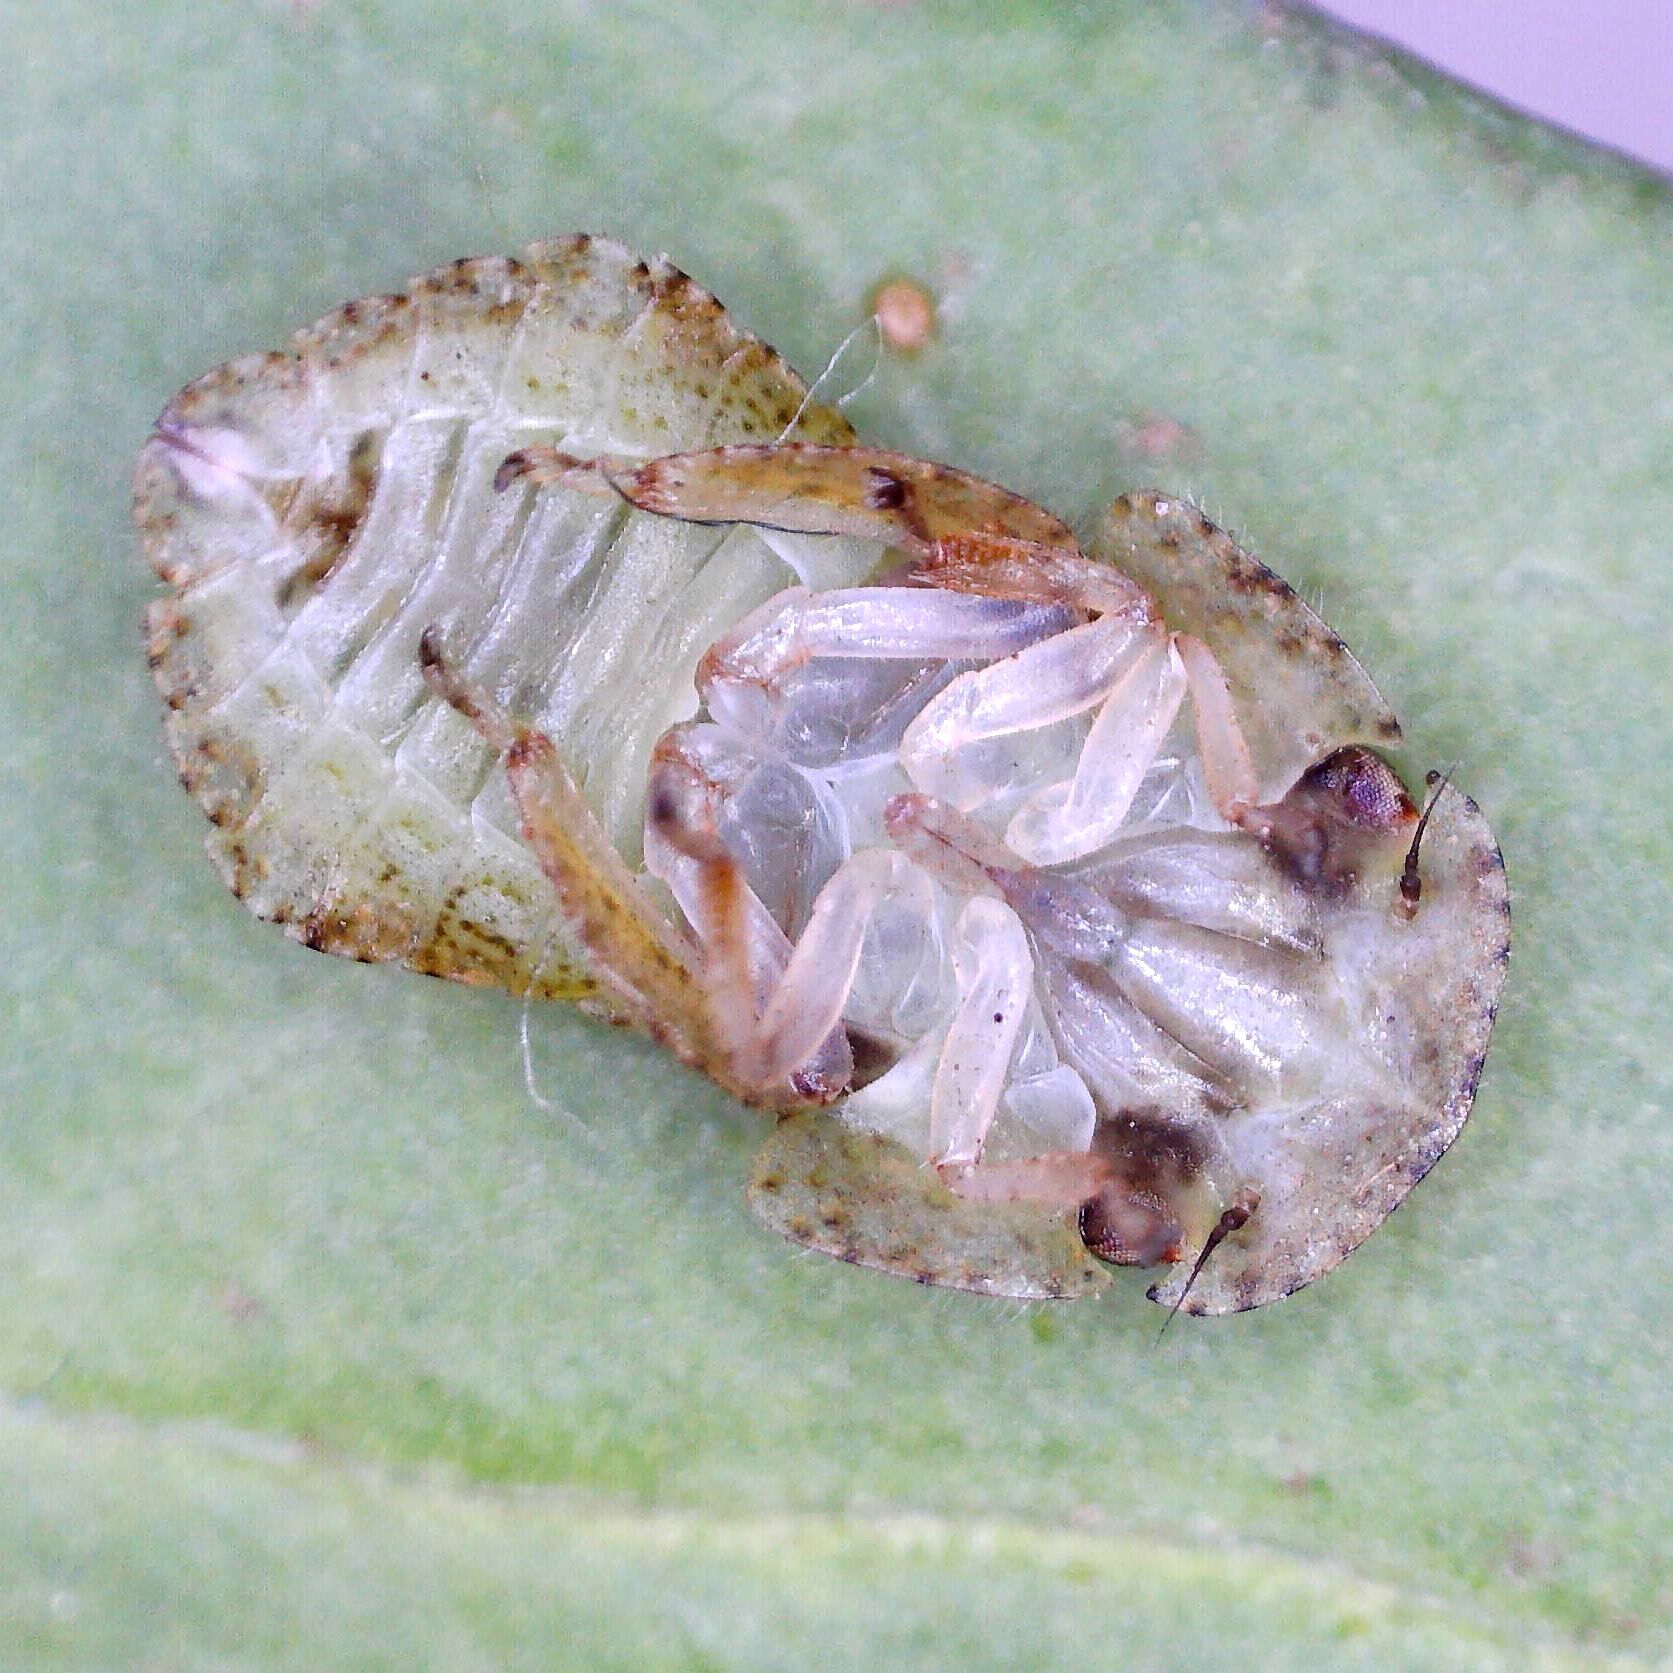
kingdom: Animalia
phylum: Arthropoda
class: Insecta
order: Hemiptera
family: Cicadellidae
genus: Ledra
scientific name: Ledra aurita
